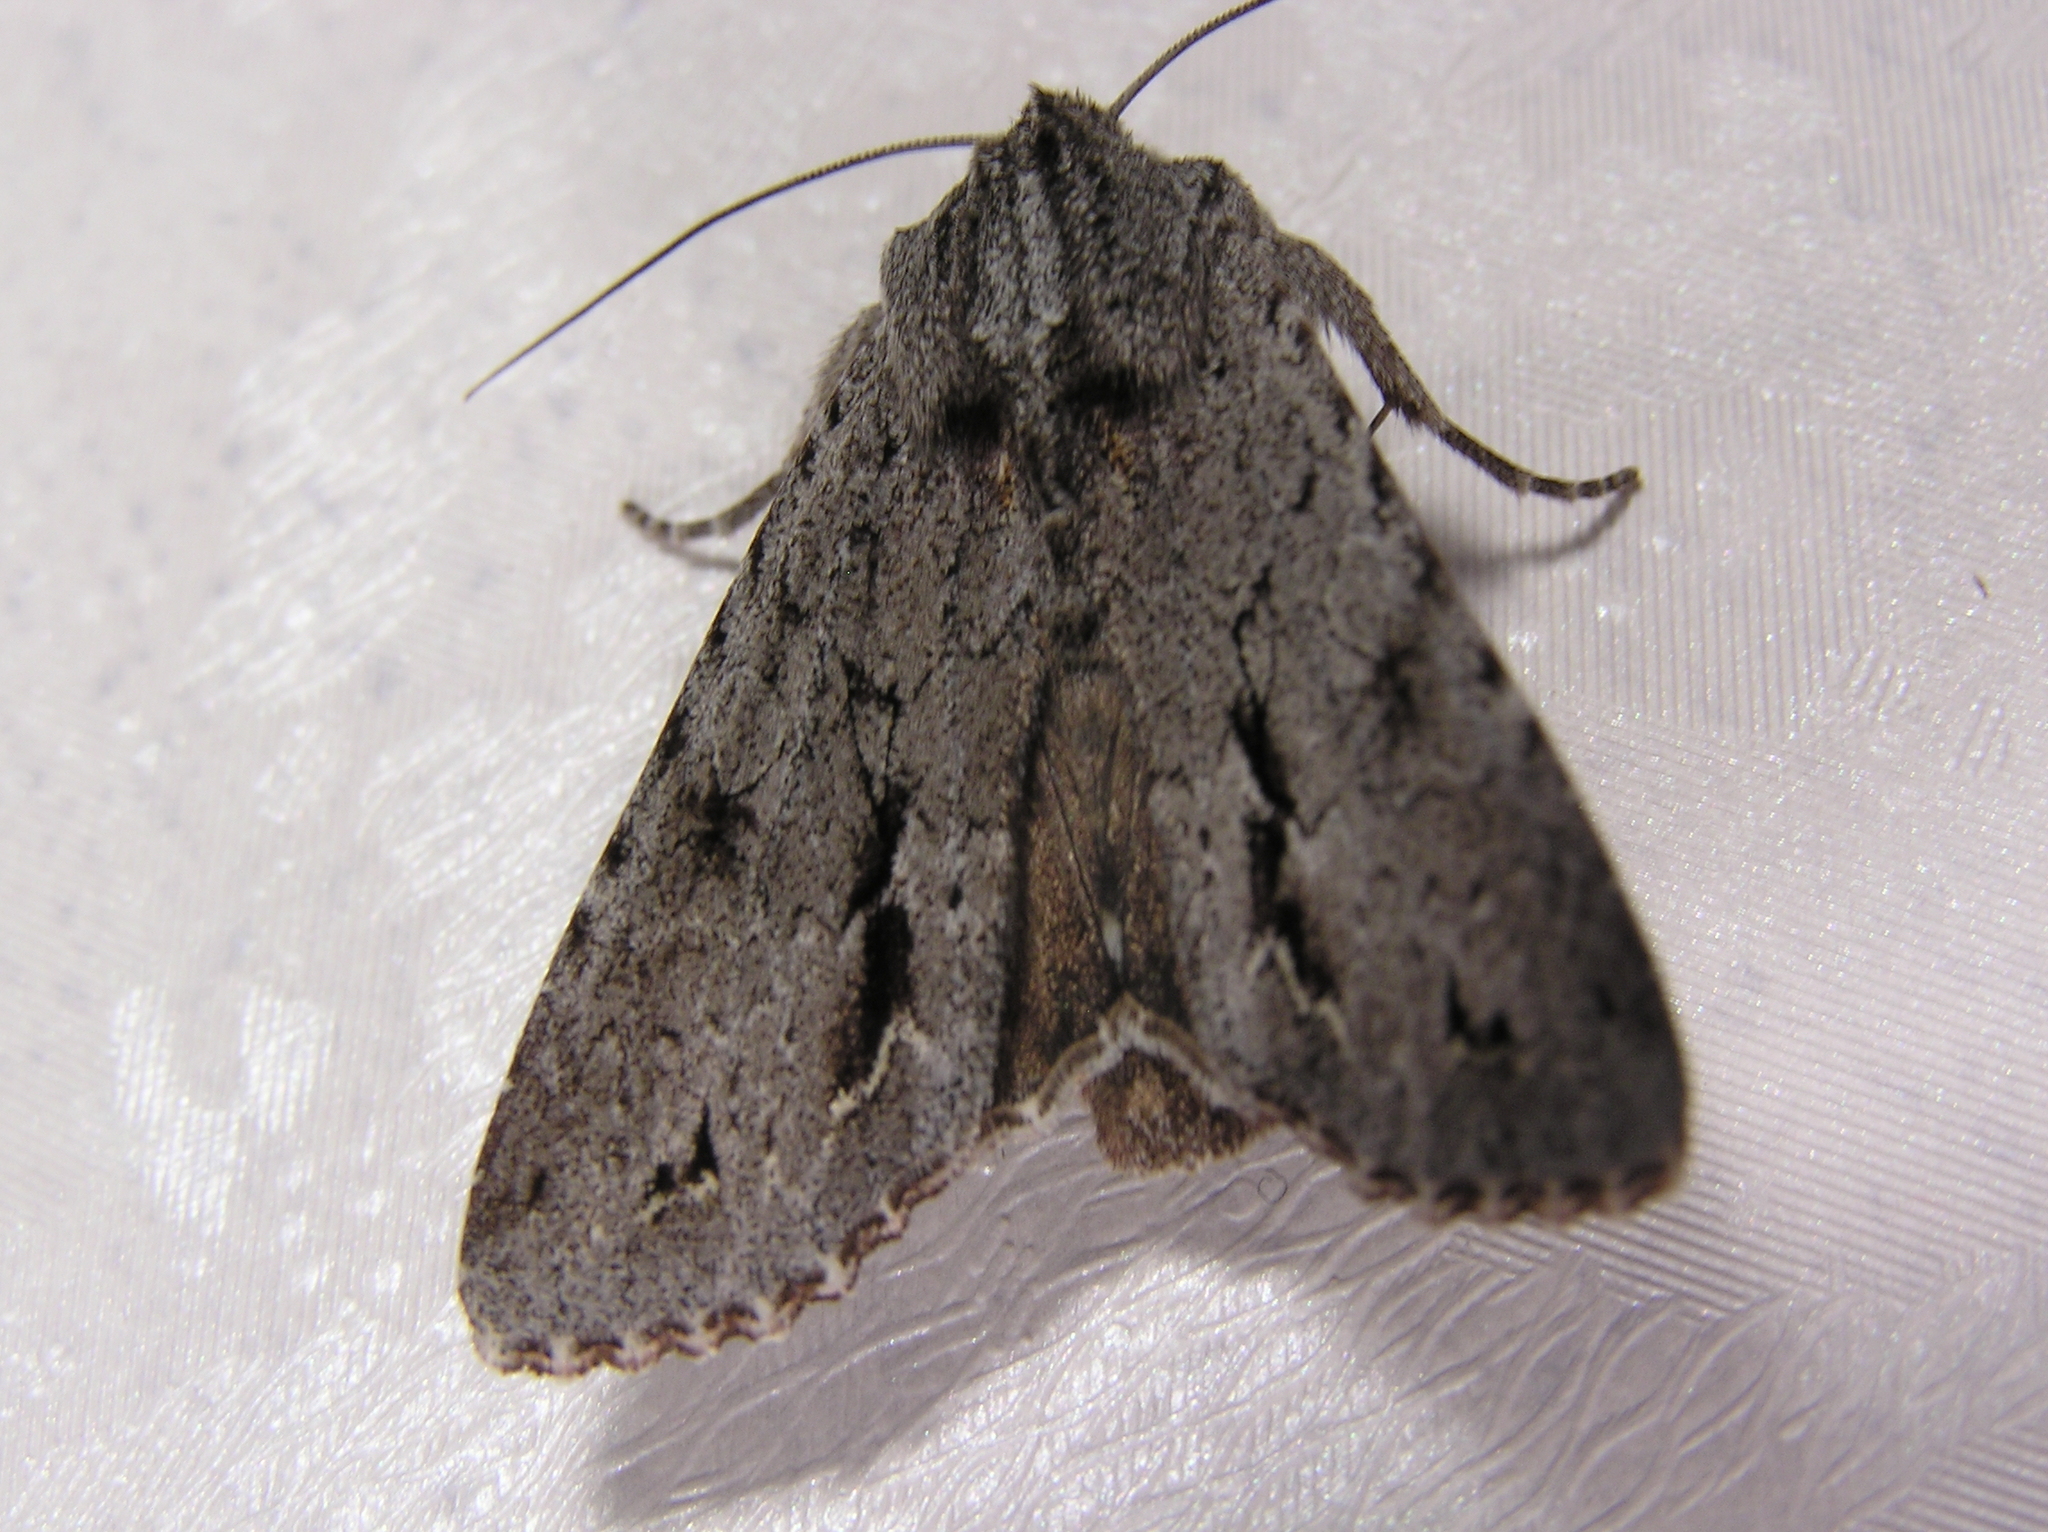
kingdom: Animalia
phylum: Arthropoda
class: Insecta
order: Lepidoptera
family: Noctuidae
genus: Ichneutica
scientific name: Ichneutica
